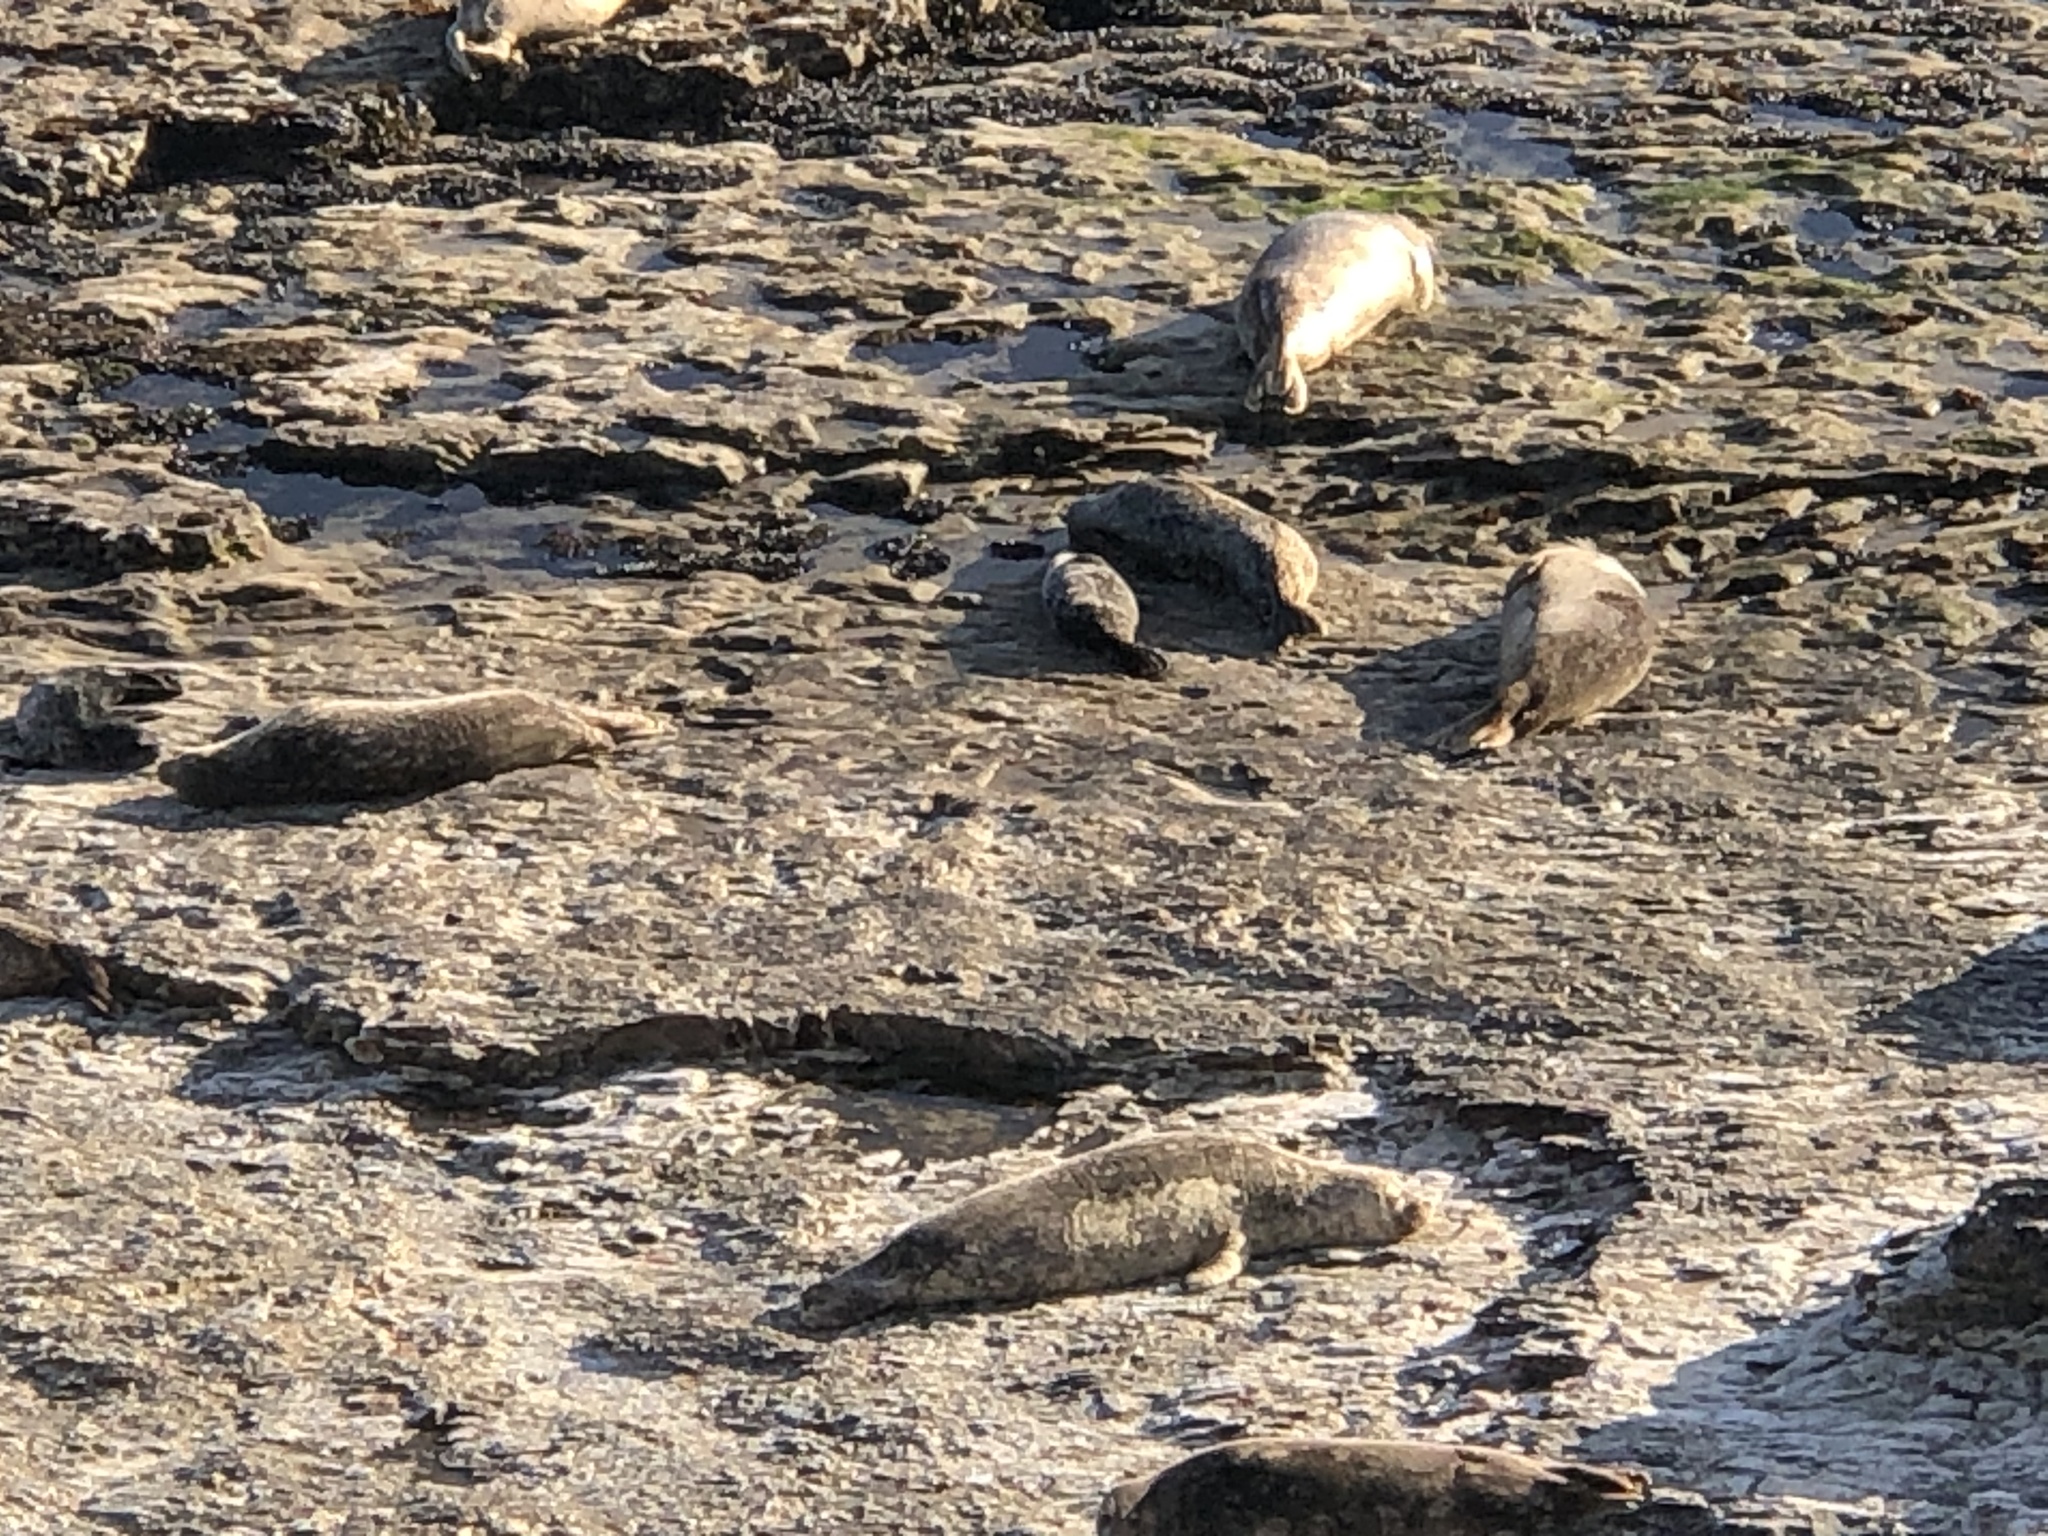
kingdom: Animalia
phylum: Chordata
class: Mammalia
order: Carnivora
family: Phocidae
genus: Phoca
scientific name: Phoca vitulina
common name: Harbor seal
